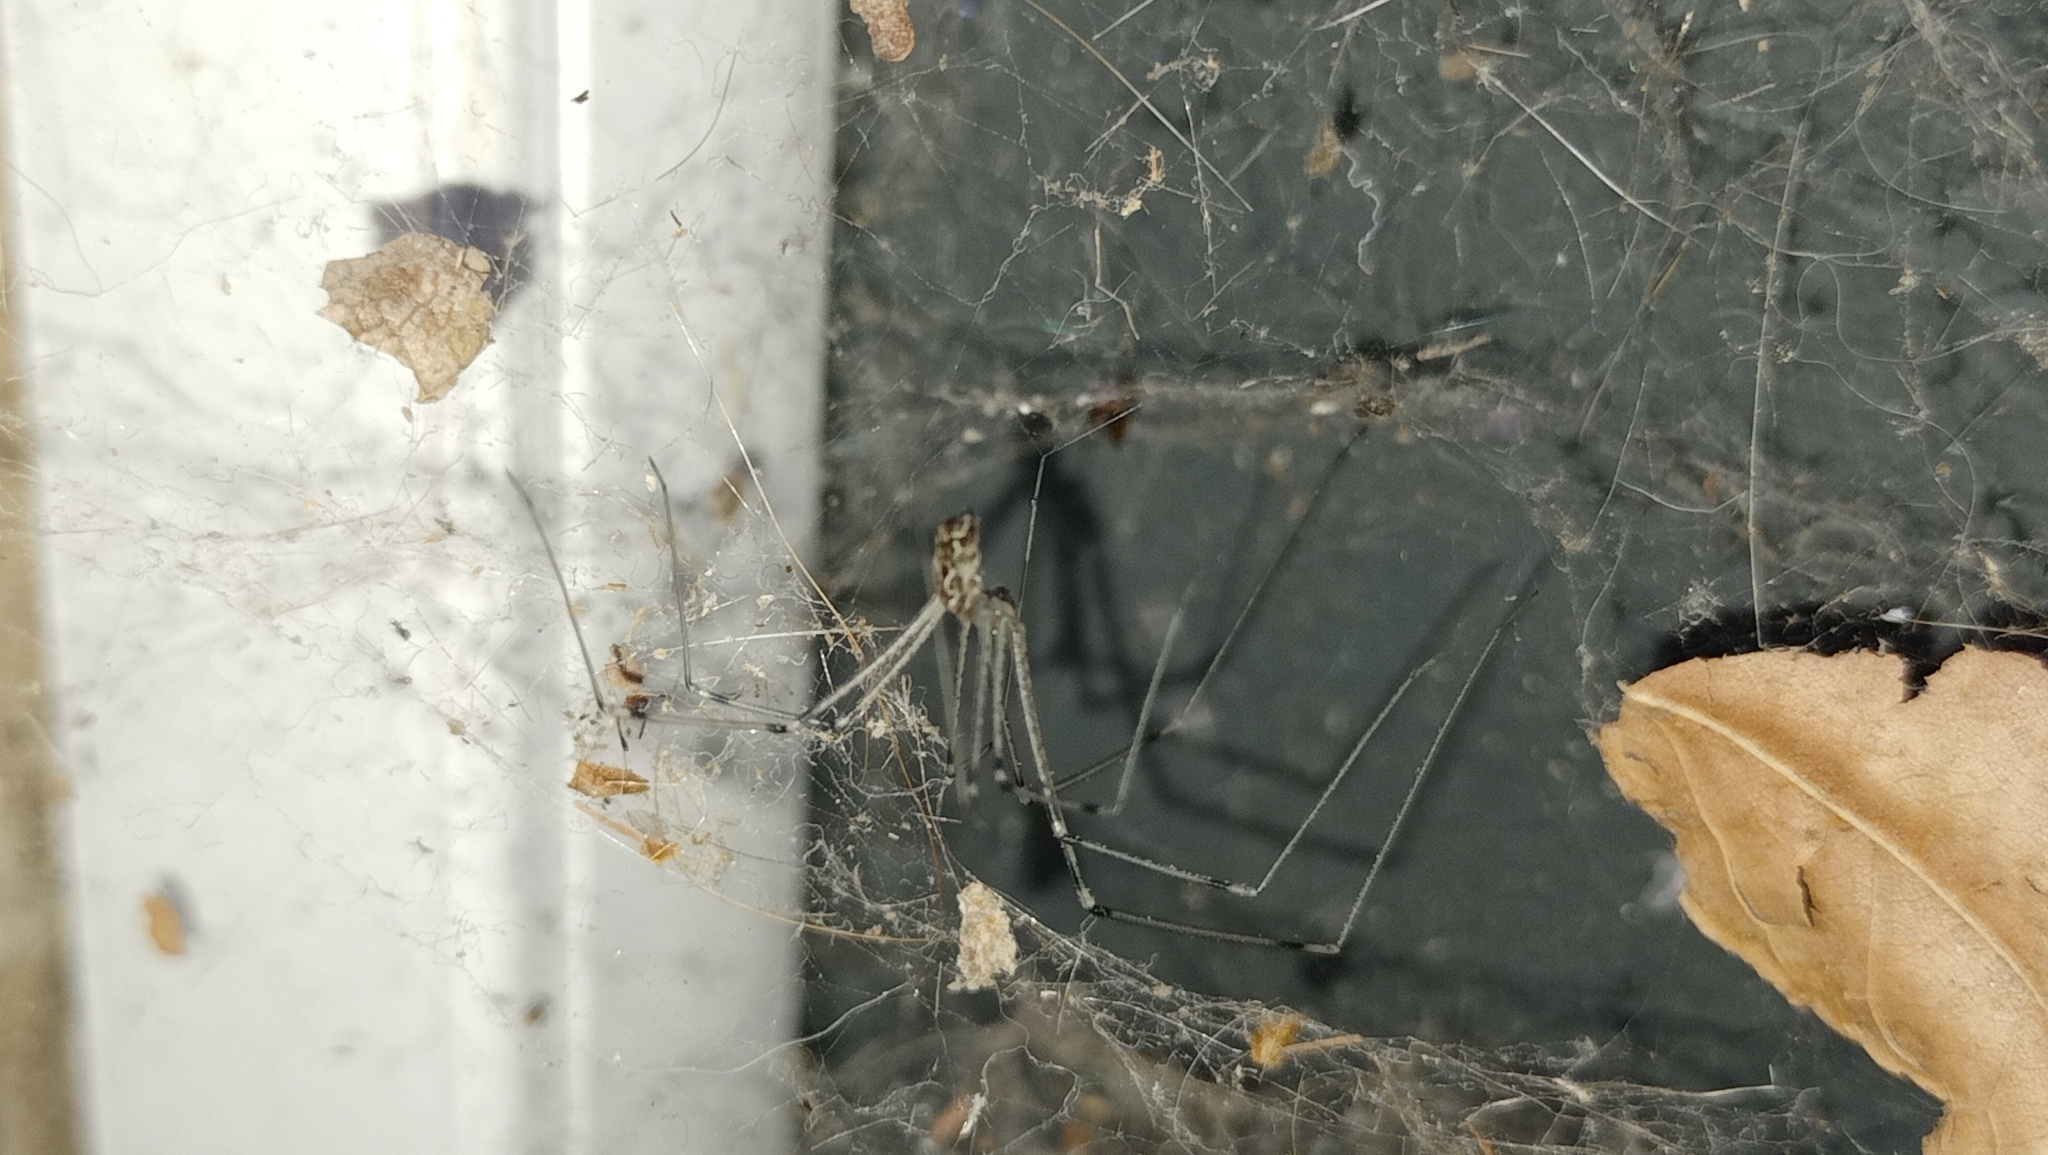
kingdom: Animalia
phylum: Arthropoda
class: Arachnida
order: Araneae
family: Pholcidae
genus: Holocnemus
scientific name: Holocnemus pluchei
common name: Marbled cellar spider
